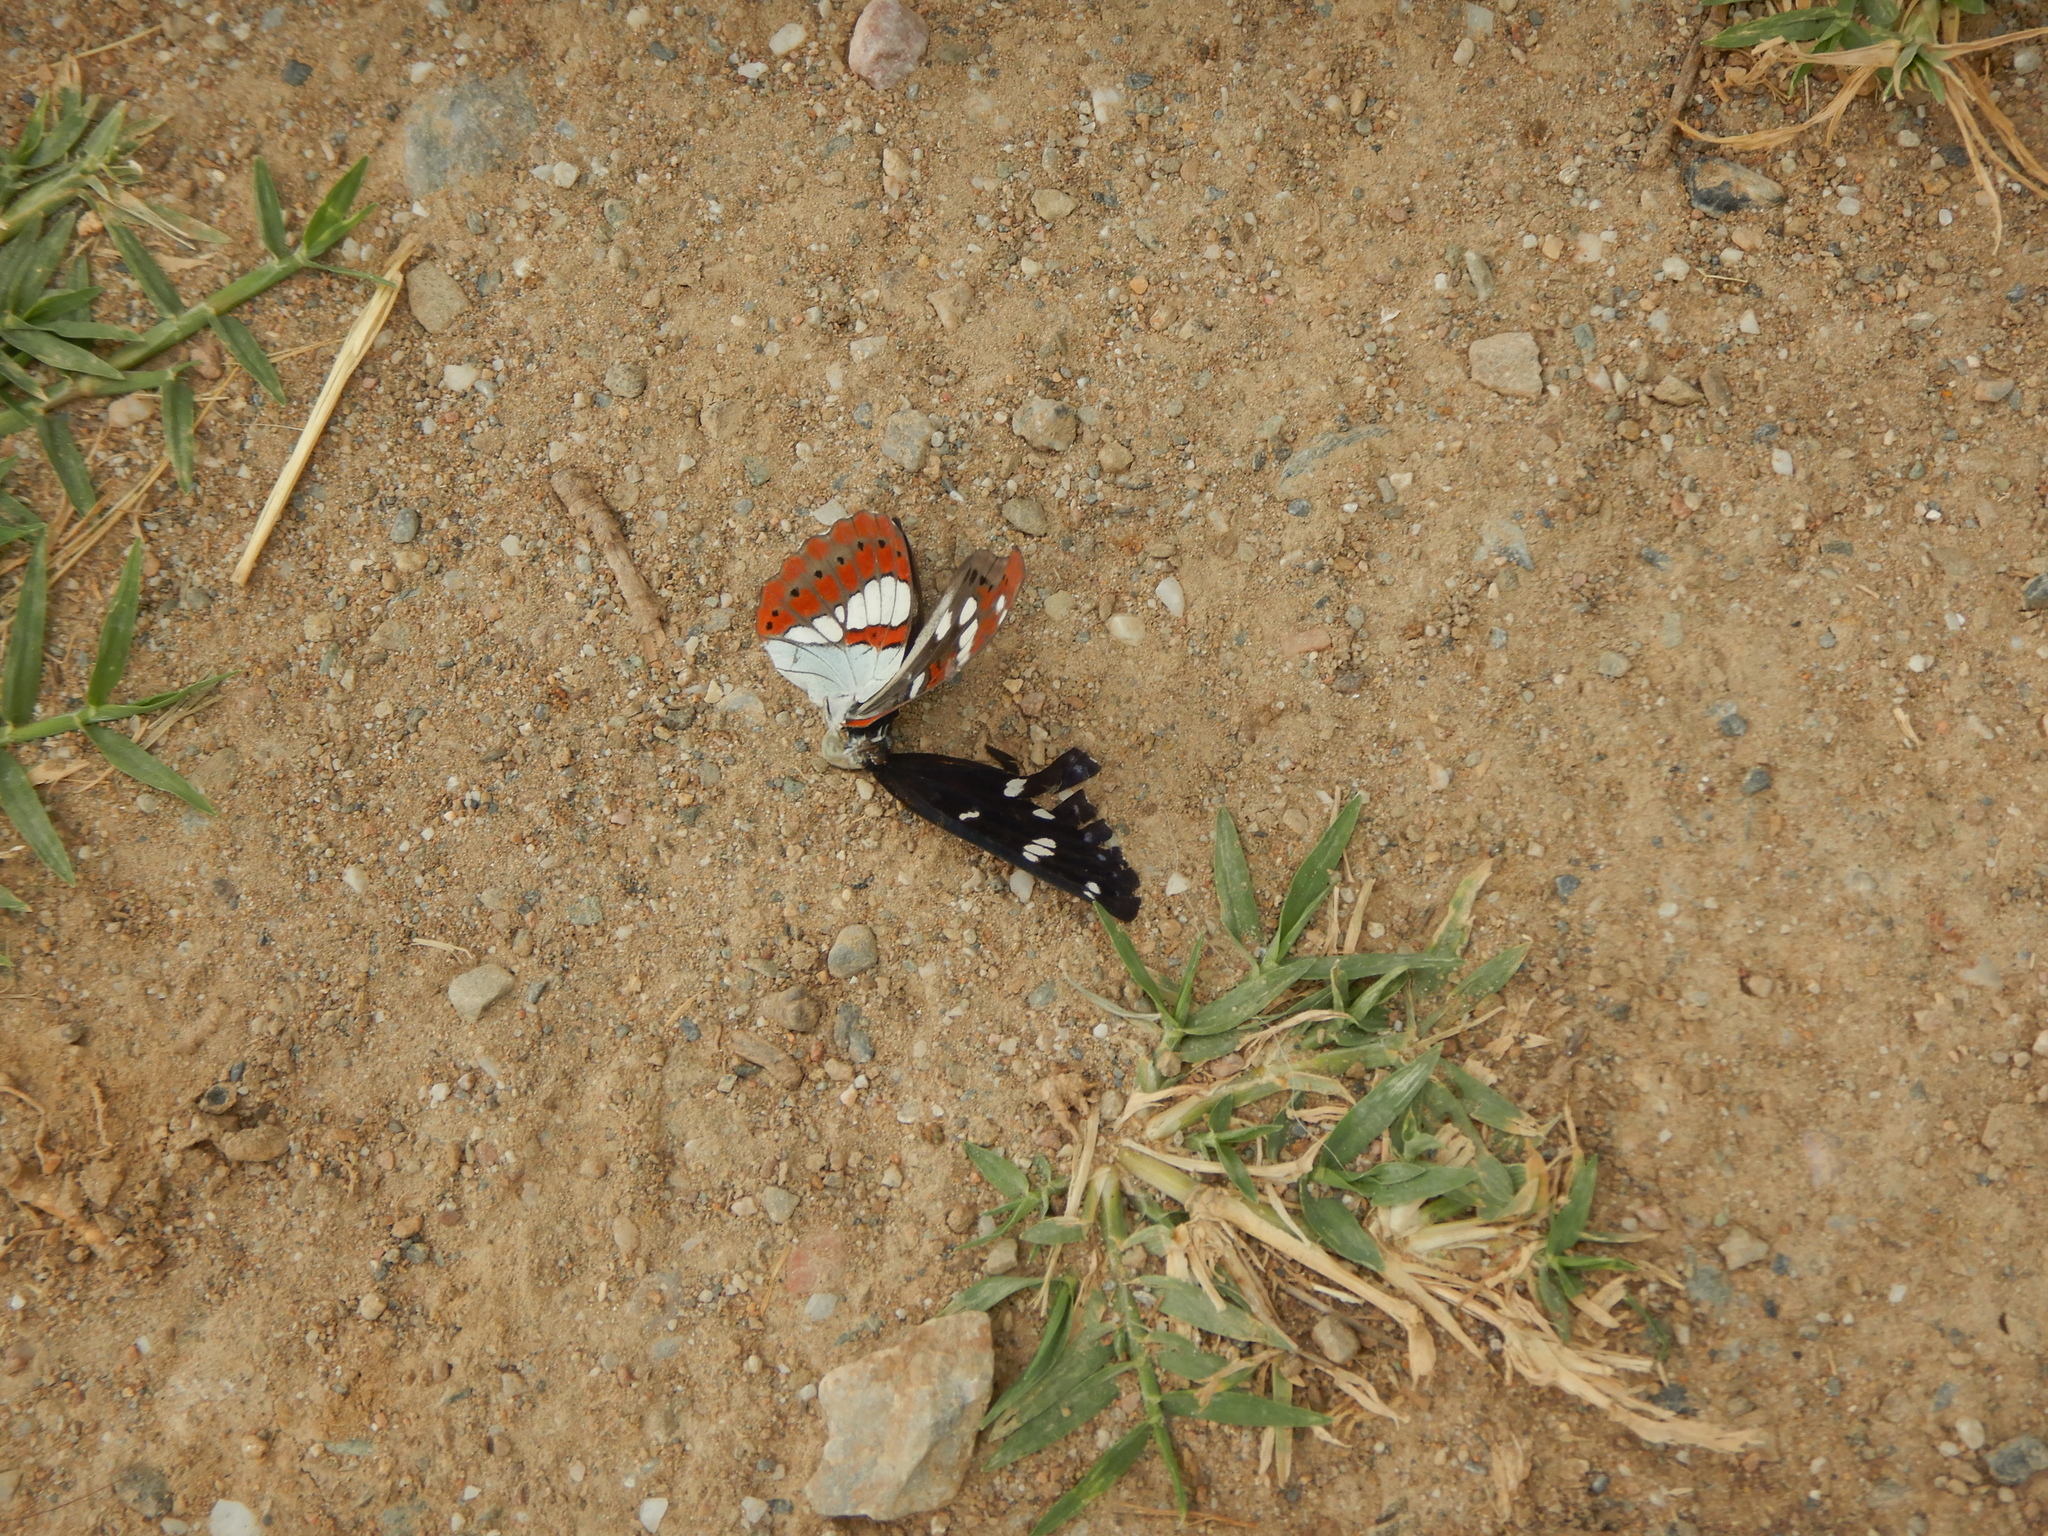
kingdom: Animalia
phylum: Arthropoda
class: Insecta
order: Lepidoptera
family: Nymphalidae
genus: Limenitis
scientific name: Limenitis reducta
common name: Southern white admiral
